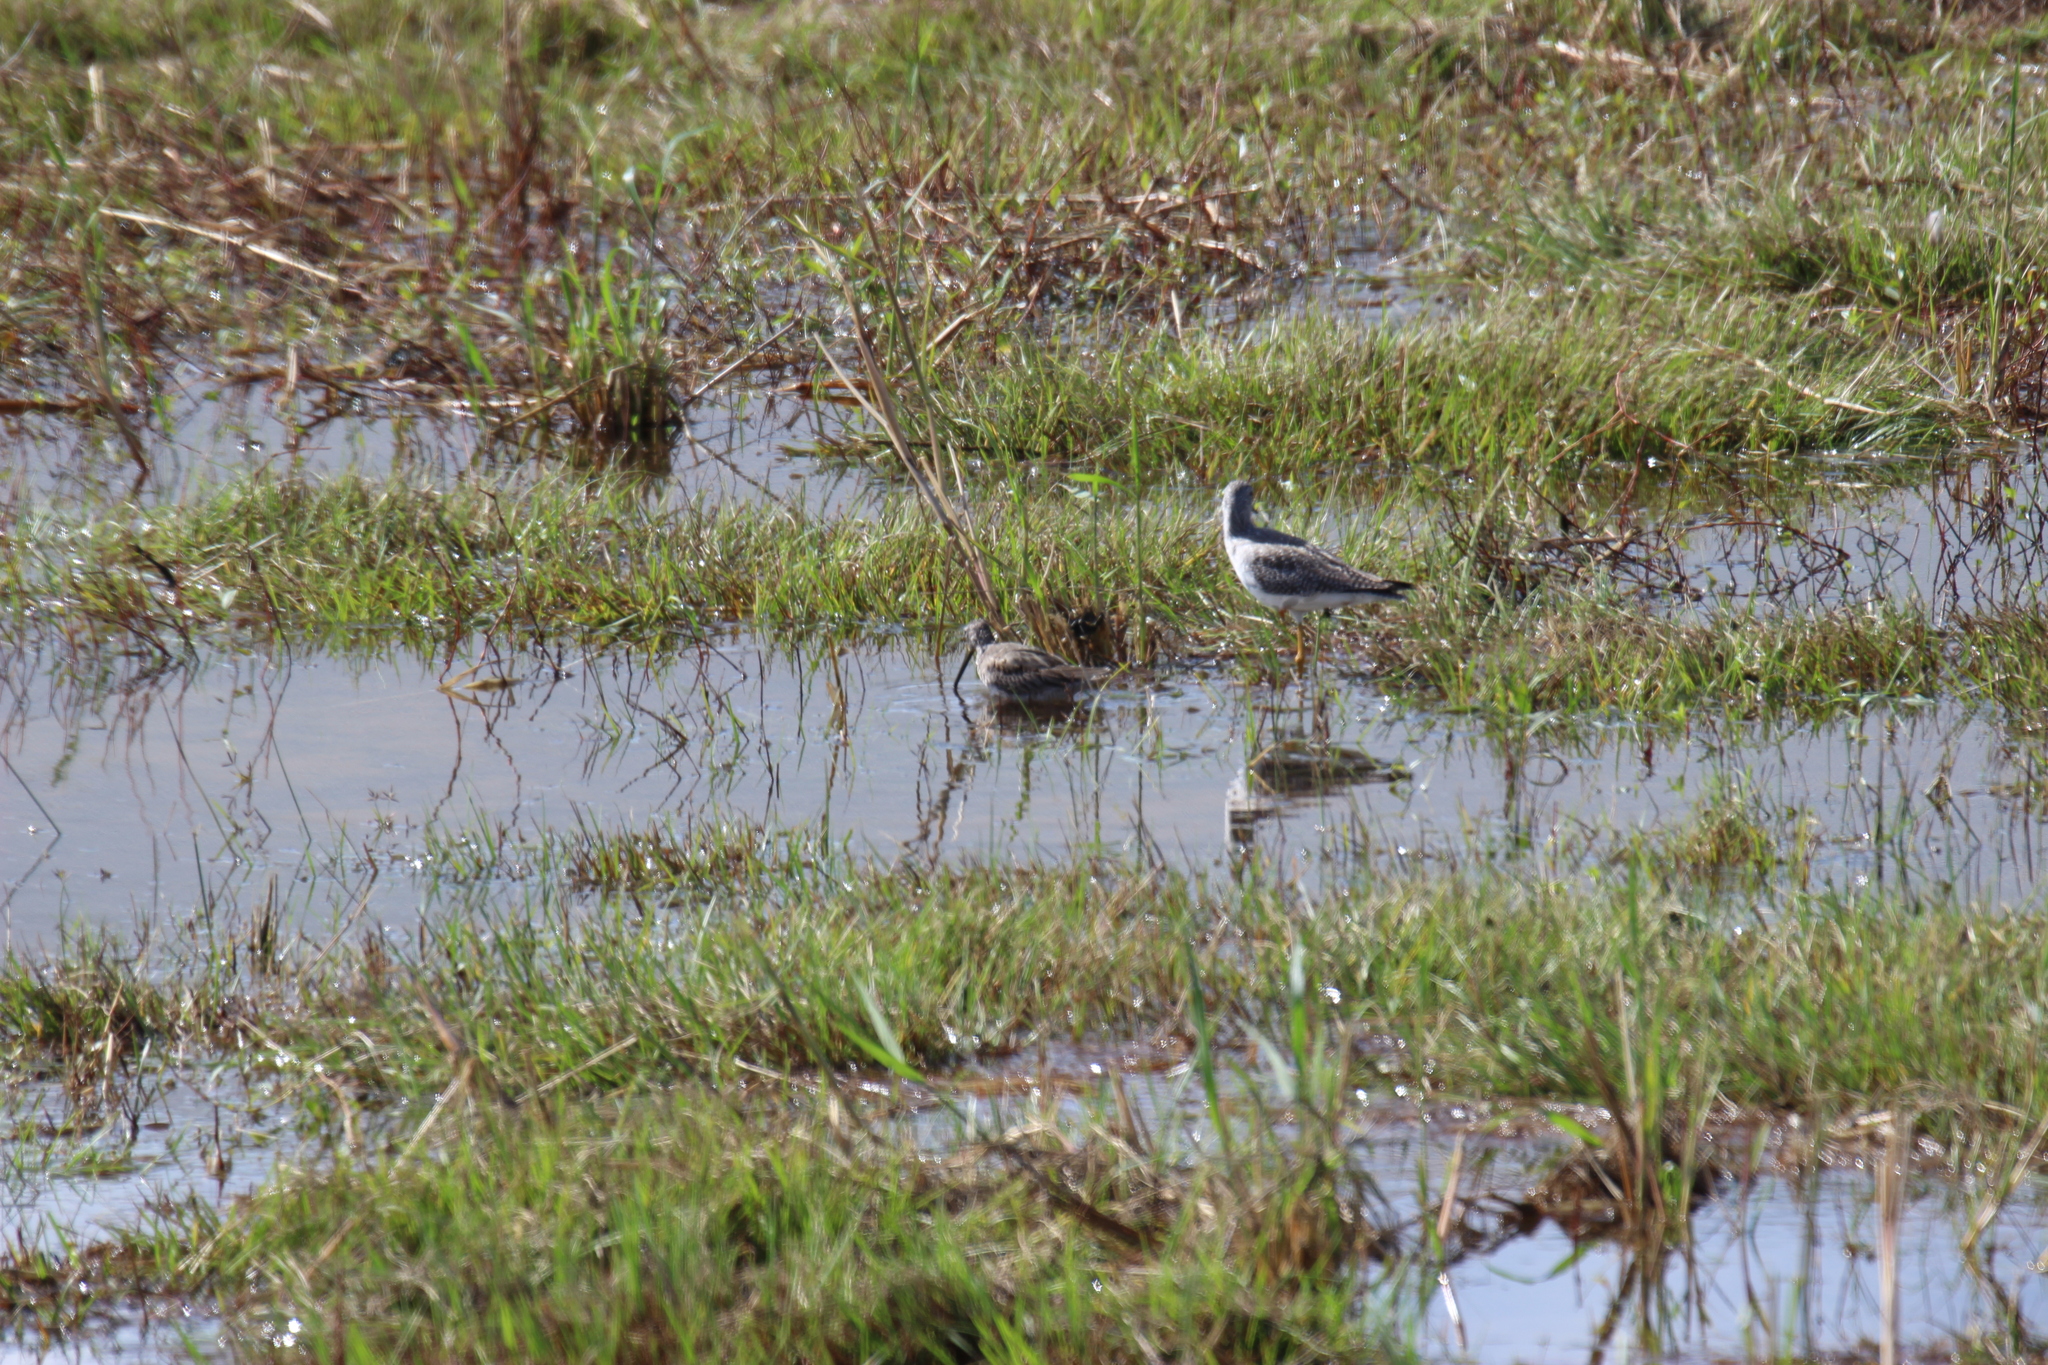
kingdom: Animalia
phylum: Chordata
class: Aves
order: Charadriiformes
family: Scolopacidae
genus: Limnodromus
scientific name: Limnodromus scolopaceus
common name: Long-billed dowitcher
